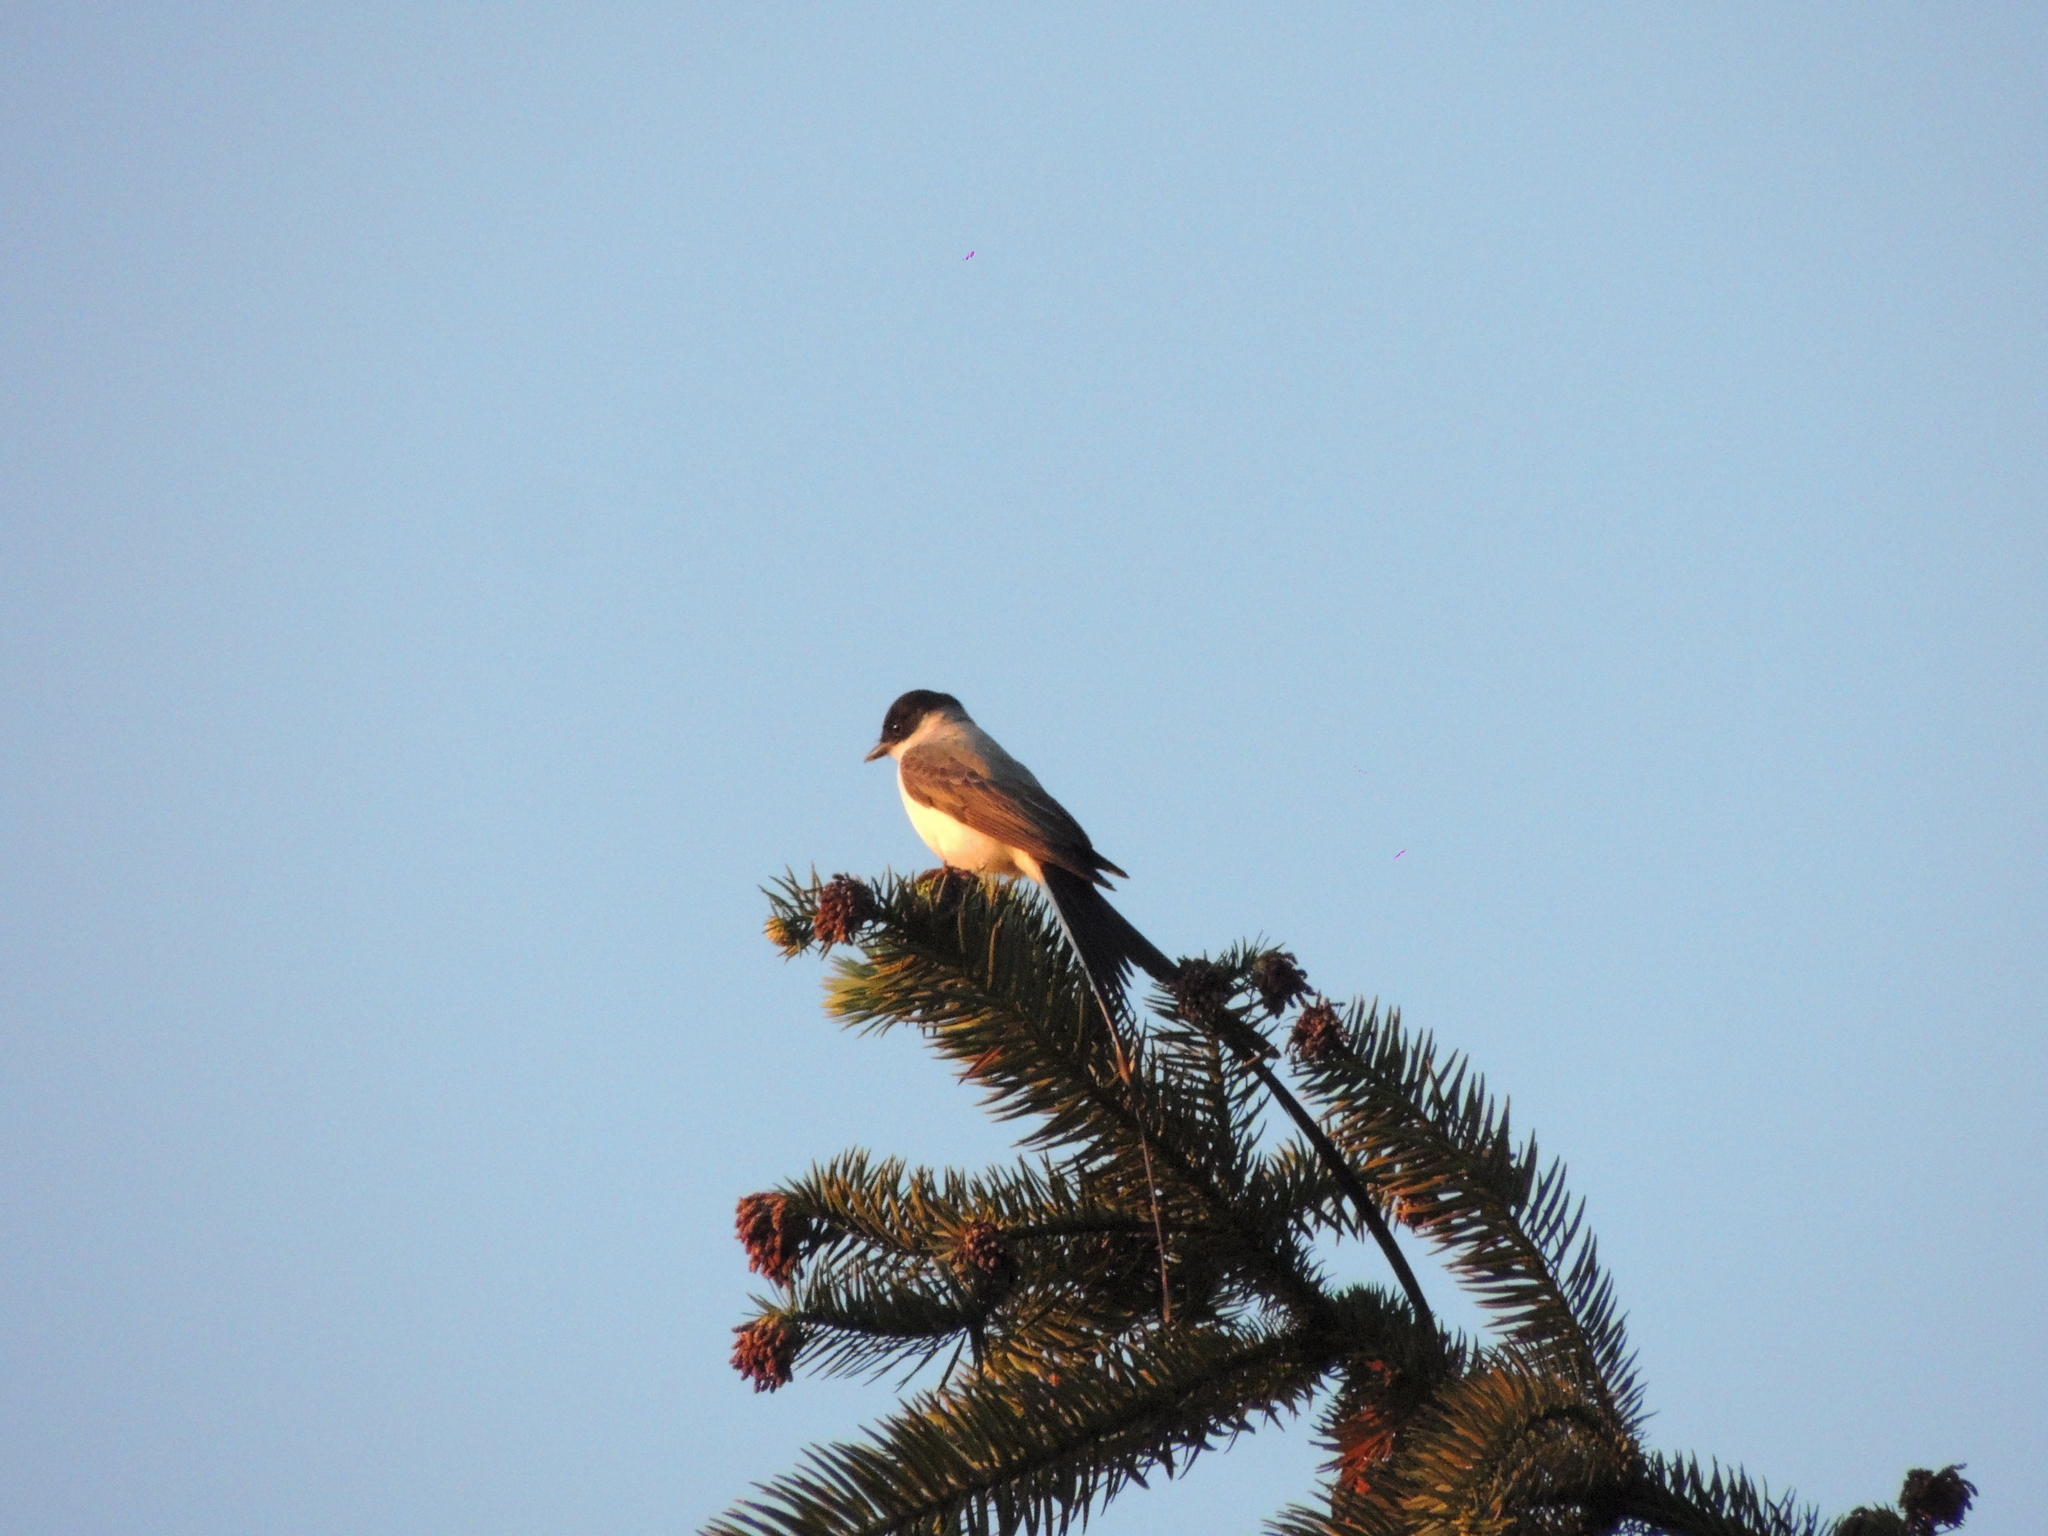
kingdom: Animalia
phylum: Chordata
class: Aves
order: Passeriformes
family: Tyrannidae
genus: Tyrannus
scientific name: Tyrannus savana
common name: Fork-tailed flycatcher
